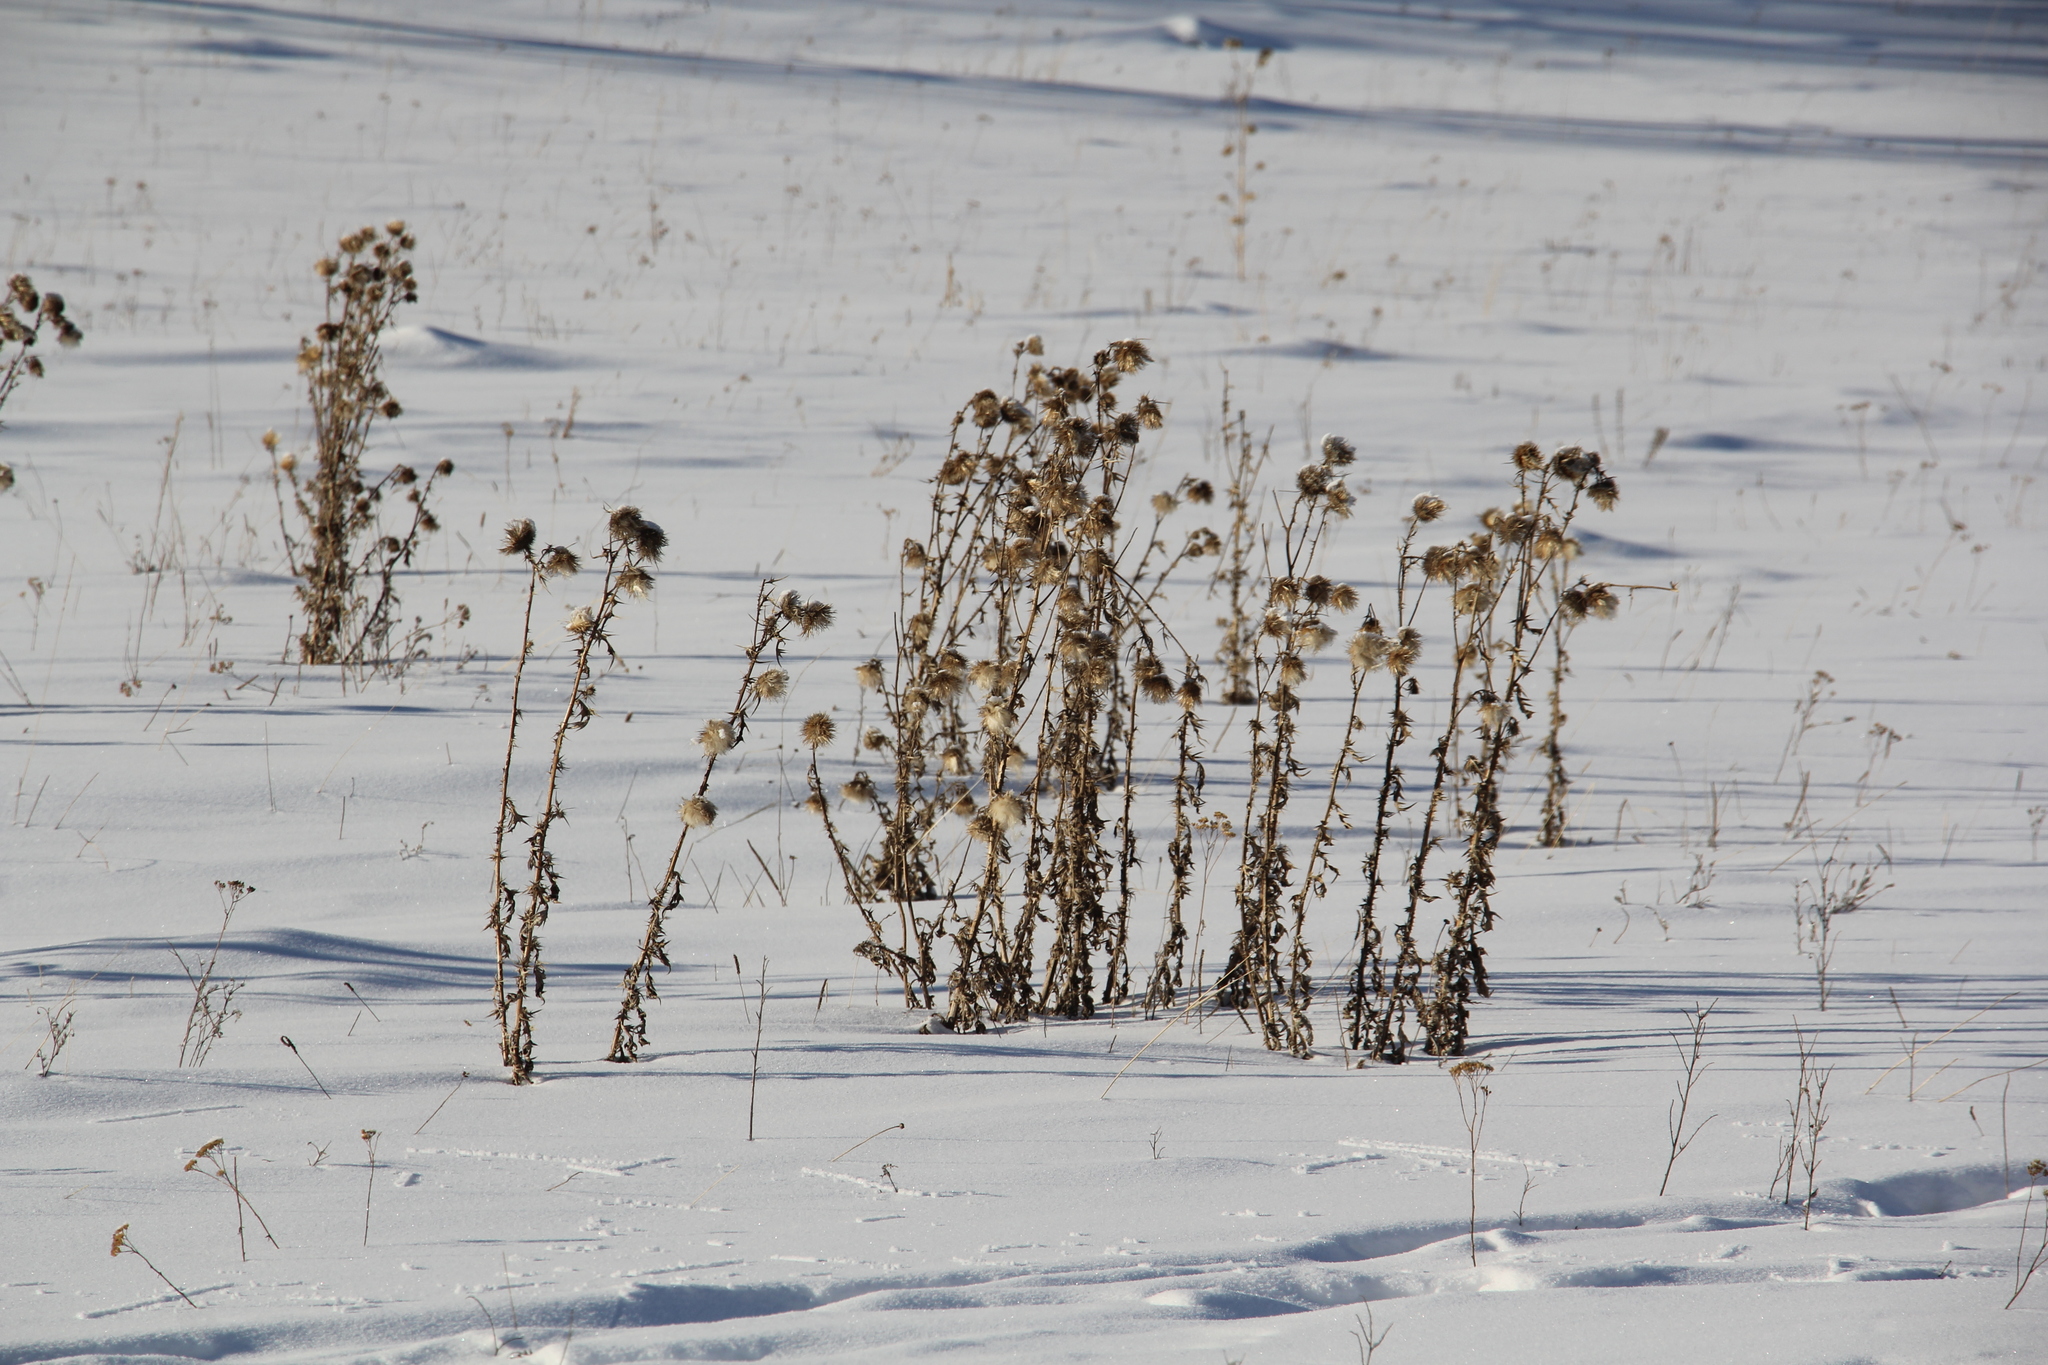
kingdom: Plantae
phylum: Tracheophyta
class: Magnoliopsida
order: Asterales
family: Asteraceae
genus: Cirsium
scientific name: Cirsium vulgare
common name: Bull thistle
